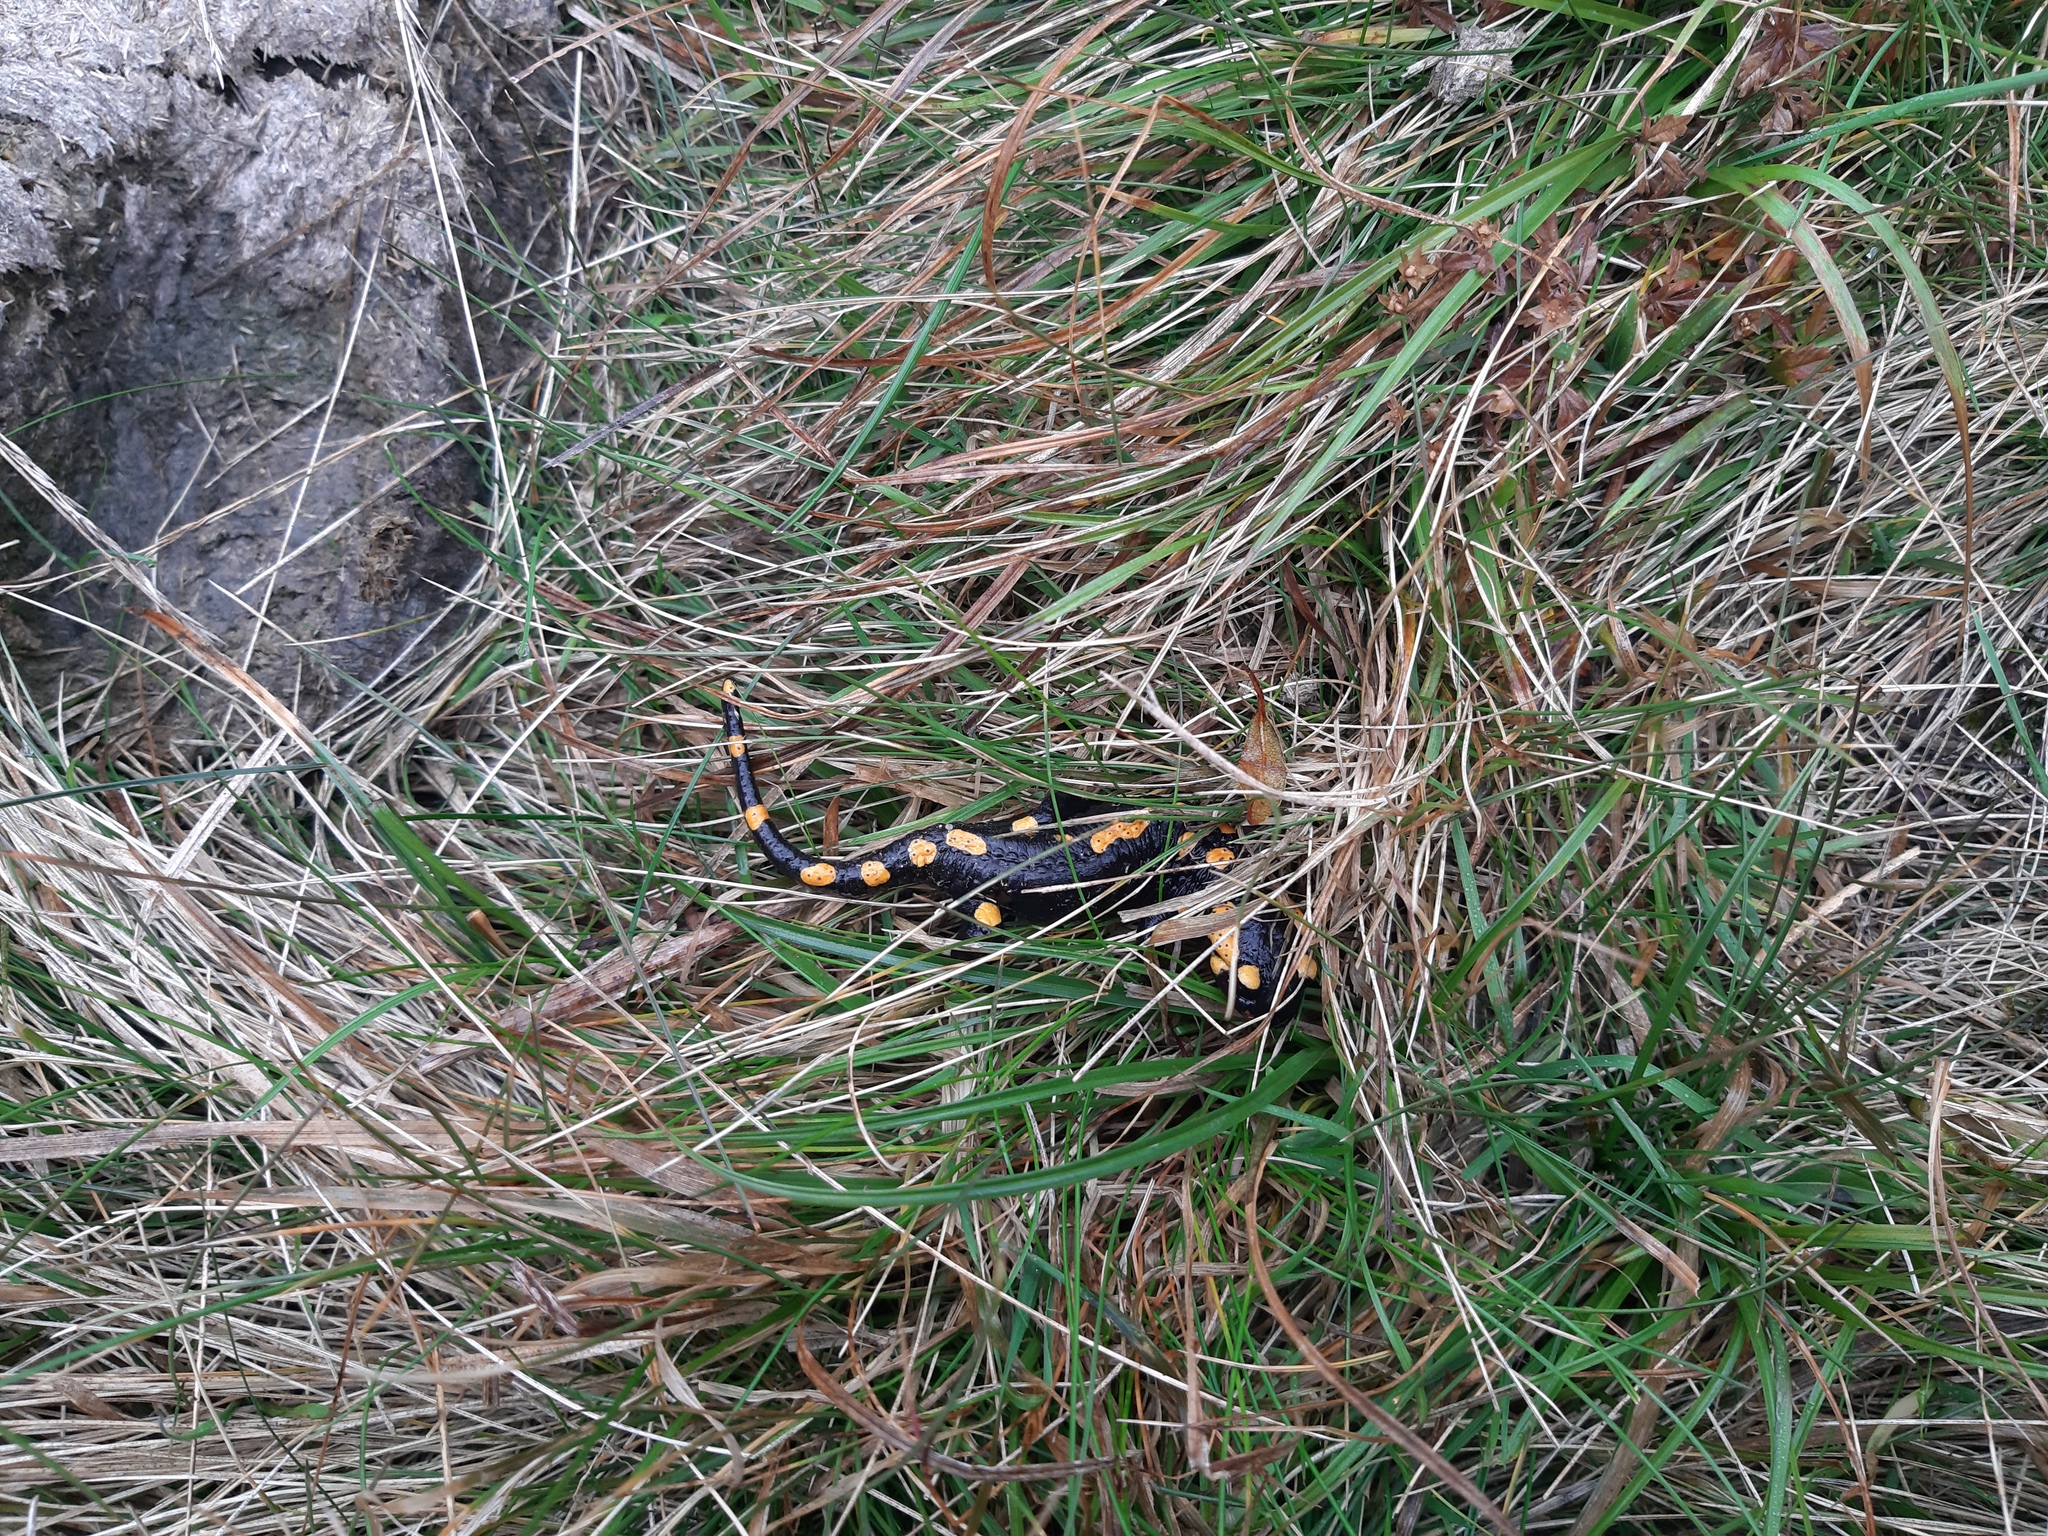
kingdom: Animalia
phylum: Chordata
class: Amphibia
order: Caudata
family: Salamandridae
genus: Salamandra
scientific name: Salamandra salamandra
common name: Fire salamander
